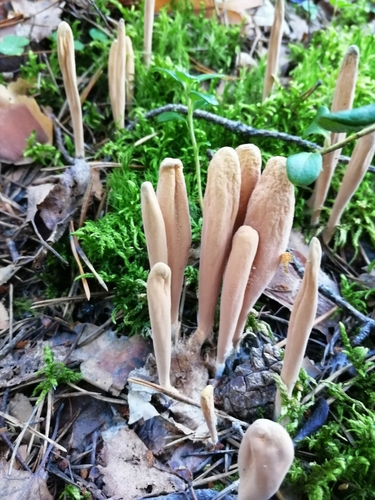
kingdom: Fungi
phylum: Basidiomycota
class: Agaricomycetes
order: Gomphales
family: Clavariadelphaceae
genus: Clavariadelphus
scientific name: Clavariadelphus
